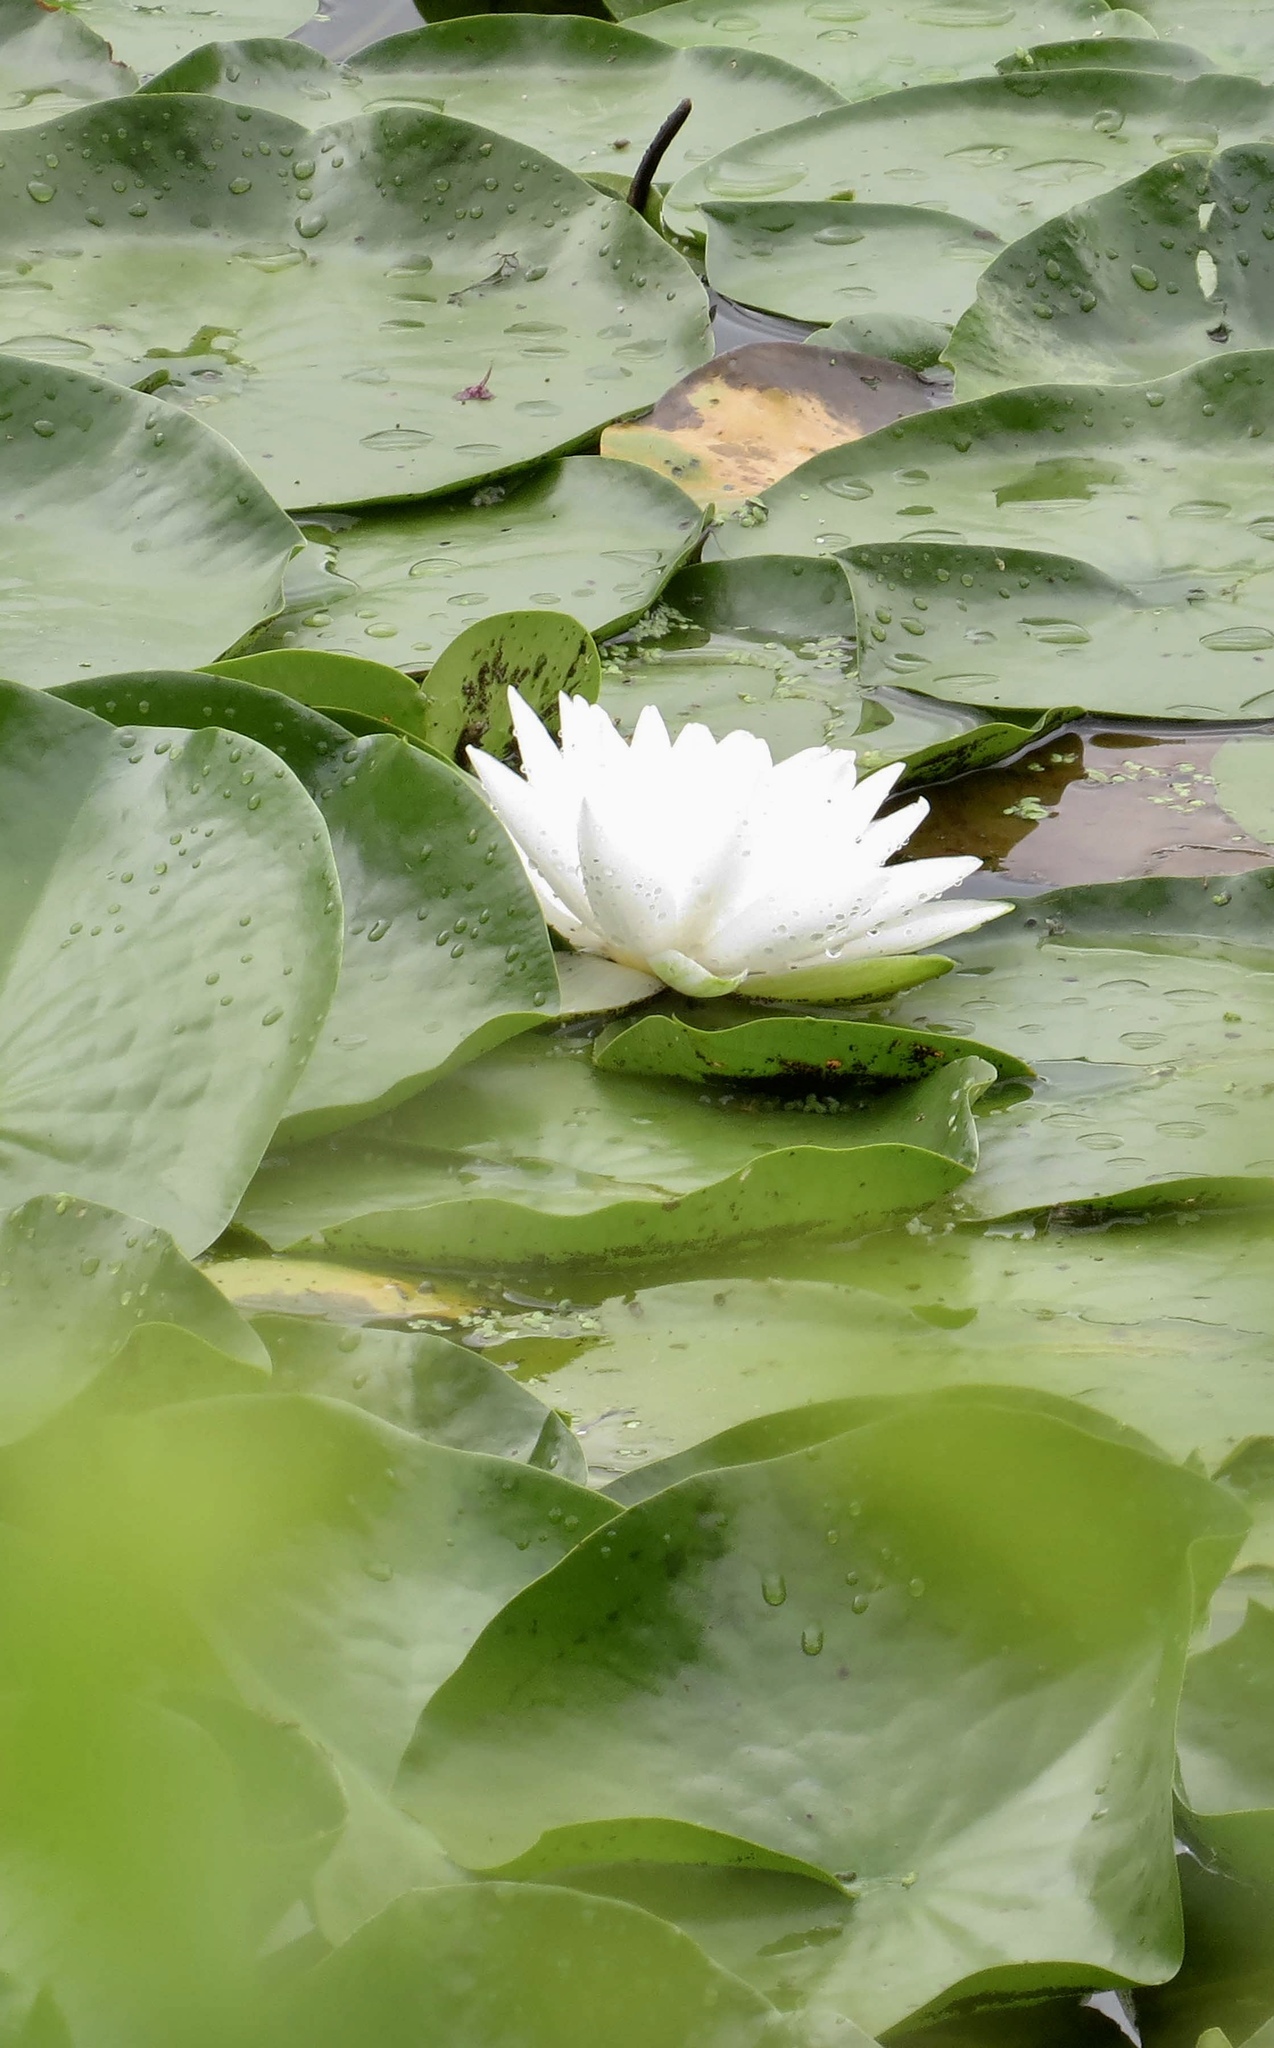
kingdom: Plantae
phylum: Tracheophyta
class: Magnoliopsida
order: Nymphaeales
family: Nymphaeaceae
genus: Nymphaea
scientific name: Nymphaea odorata
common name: Fragrant water-lily
